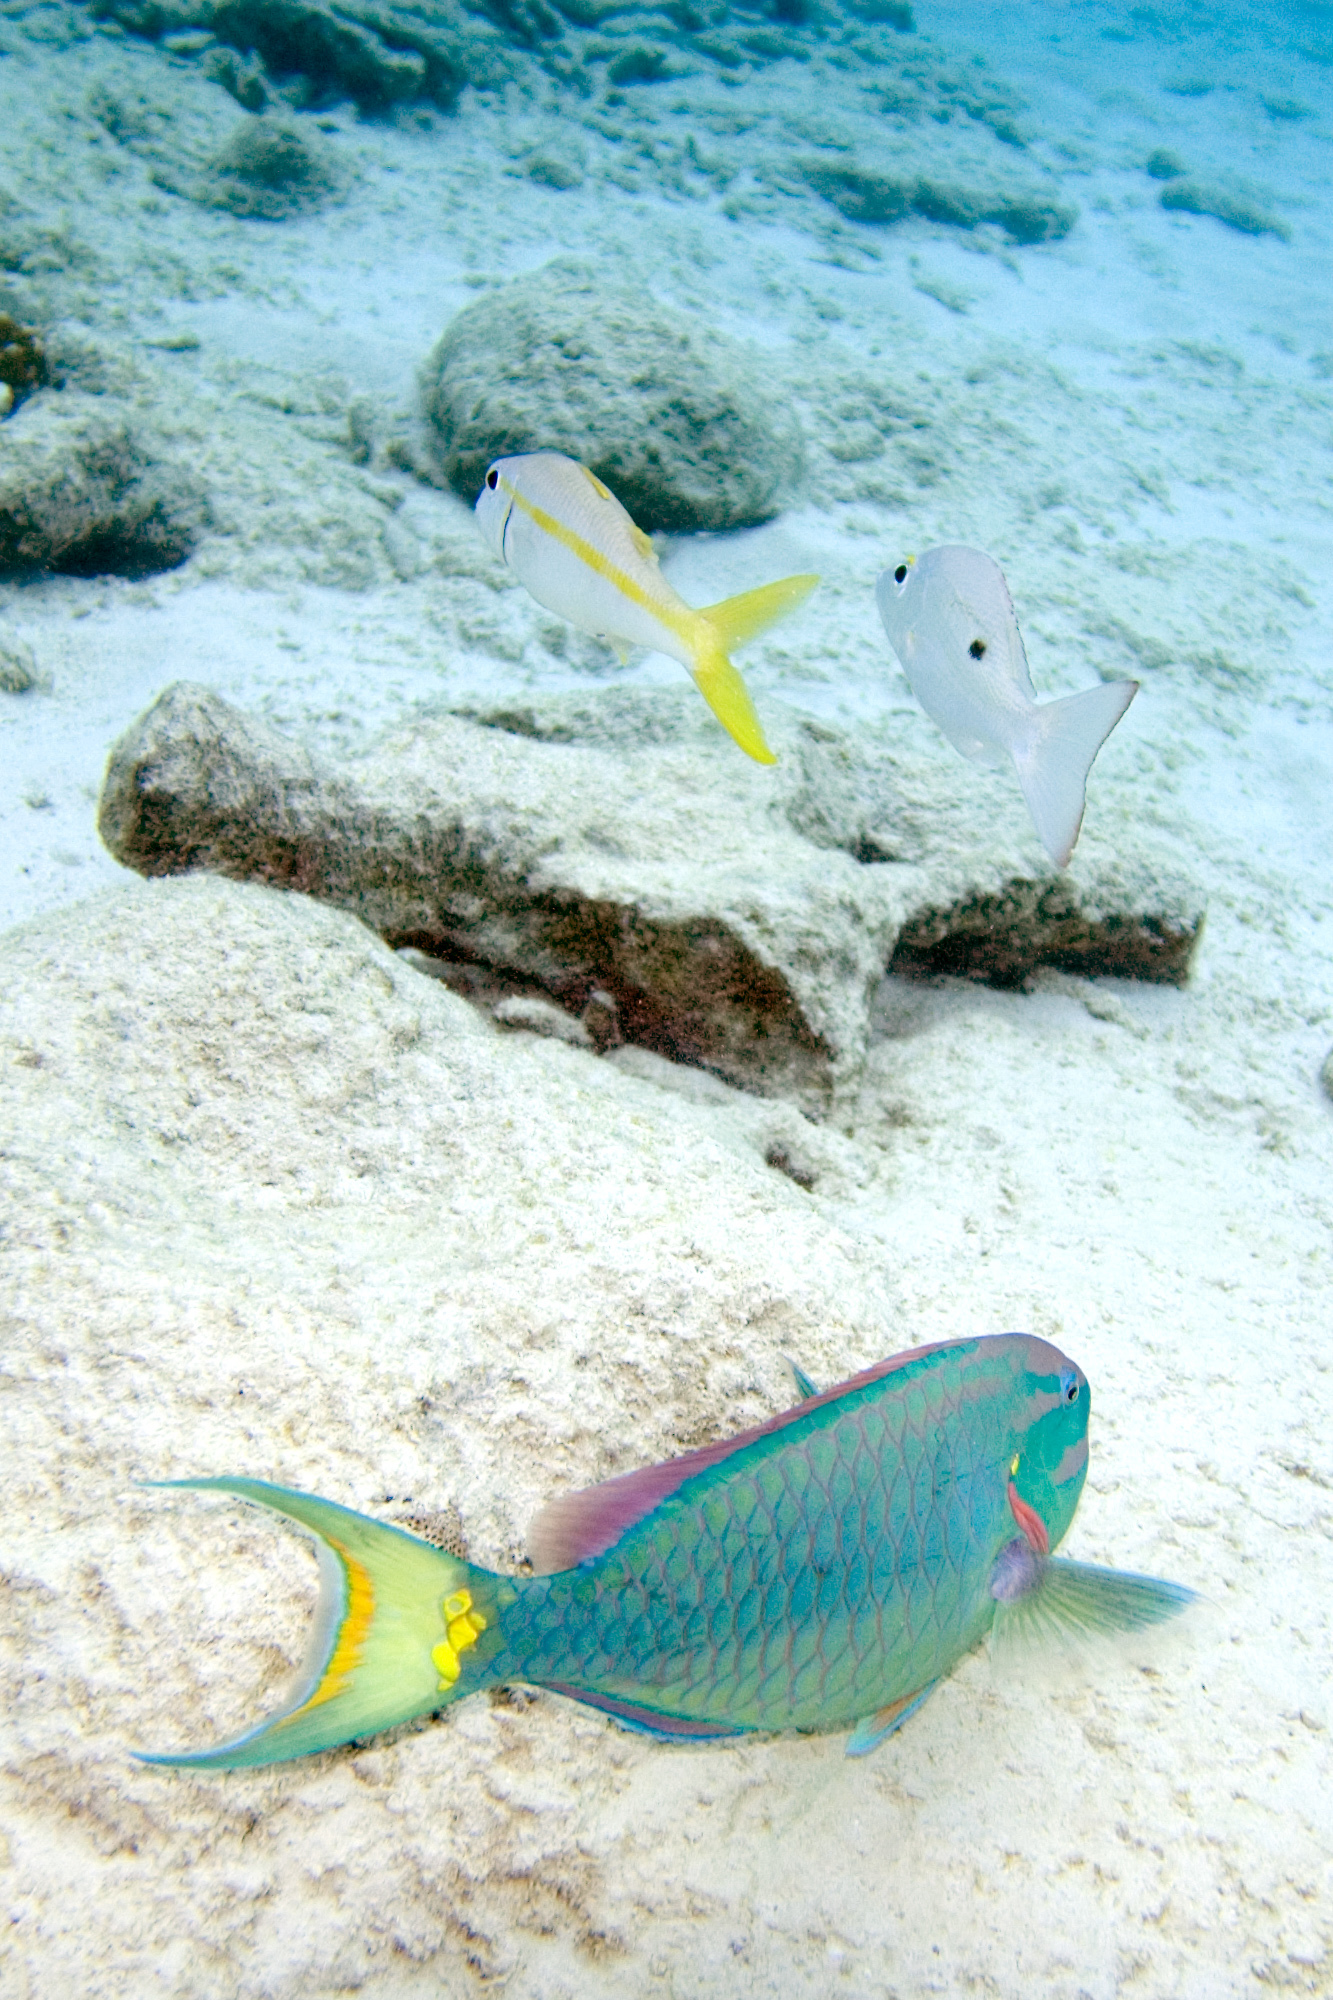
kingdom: Animalia
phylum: Chordata
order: Perciformes
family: Lutjanidae
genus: Lutjanus
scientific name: Lutjanus mahogoni
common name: Spot snapper
